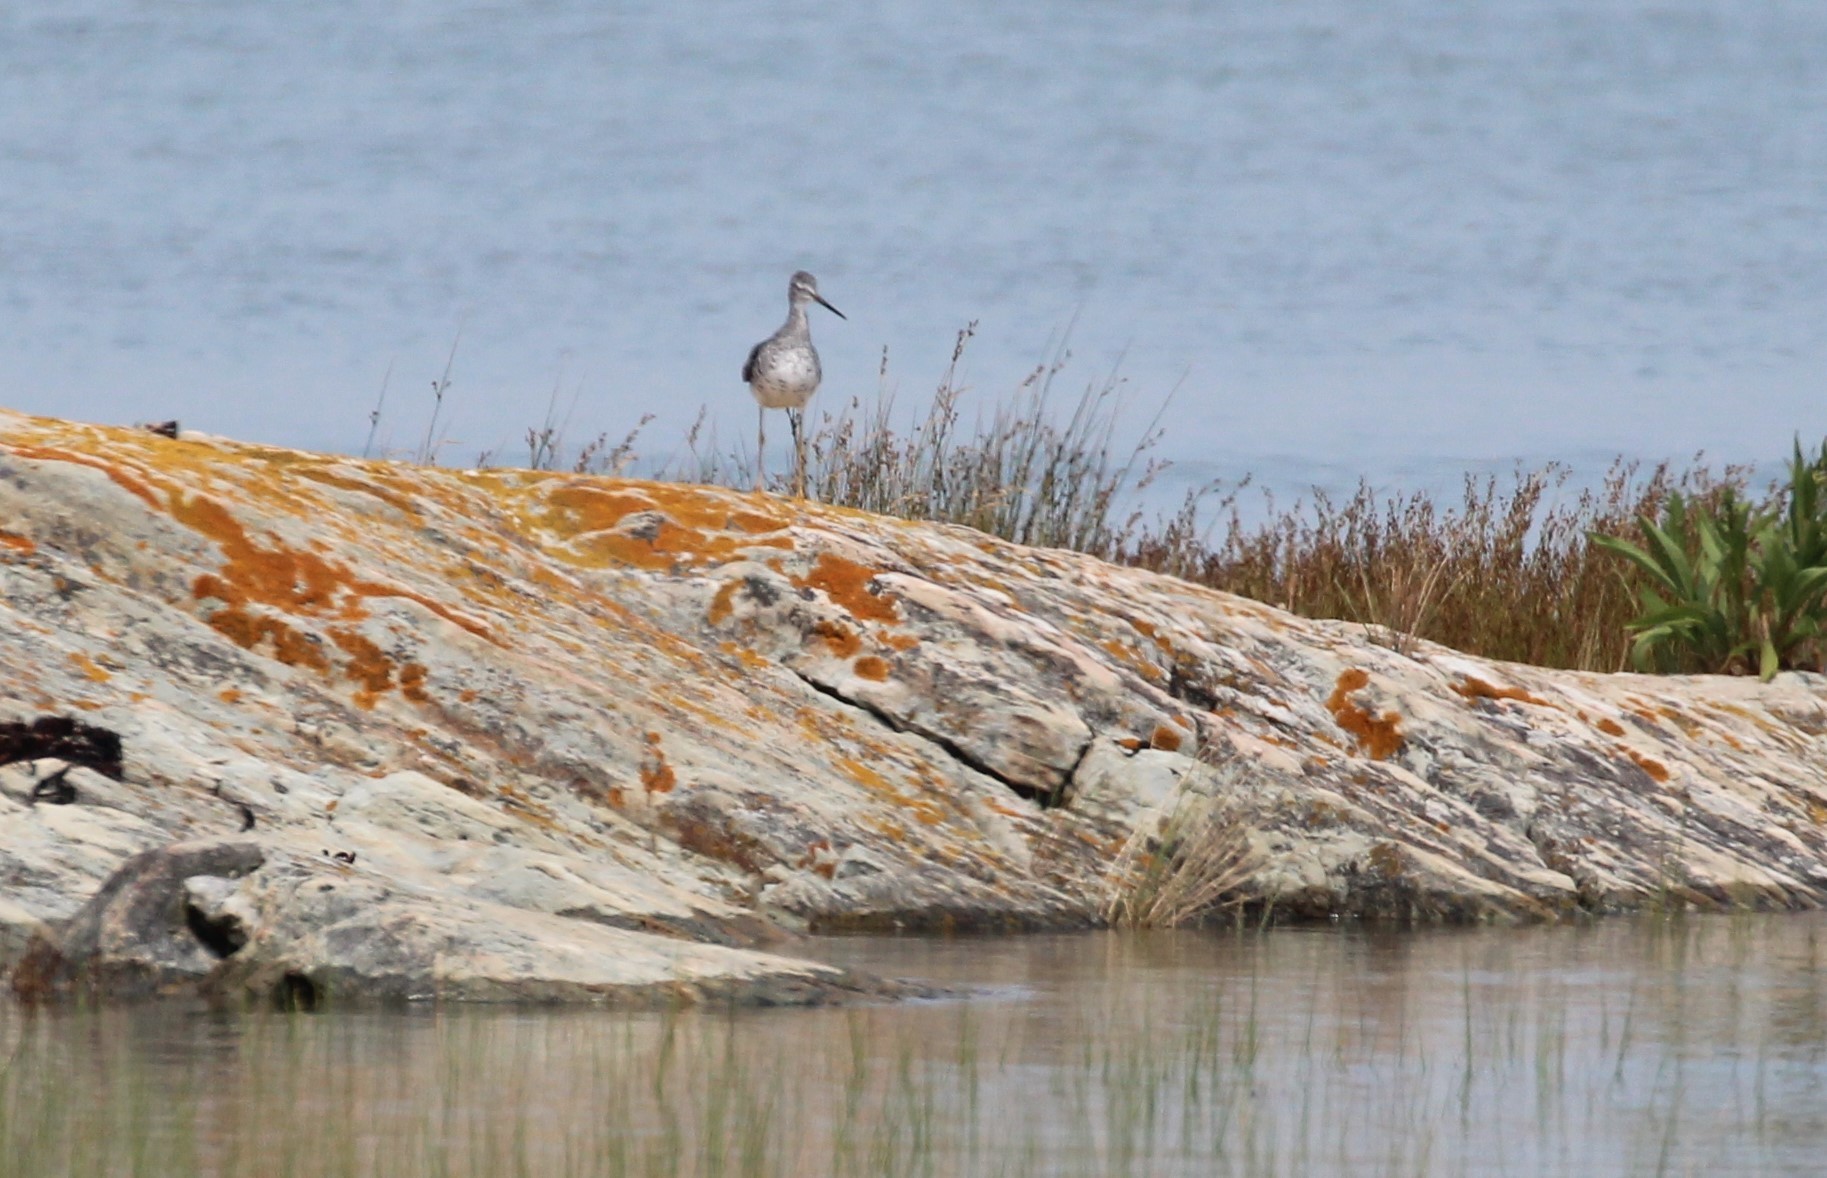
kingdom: Animalia
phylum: Chordata
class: Aves
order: Charadriiformes
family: Scolopacidae
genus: Tringa
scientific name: Tringa melanoleuca
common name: Greater yellowlegs
